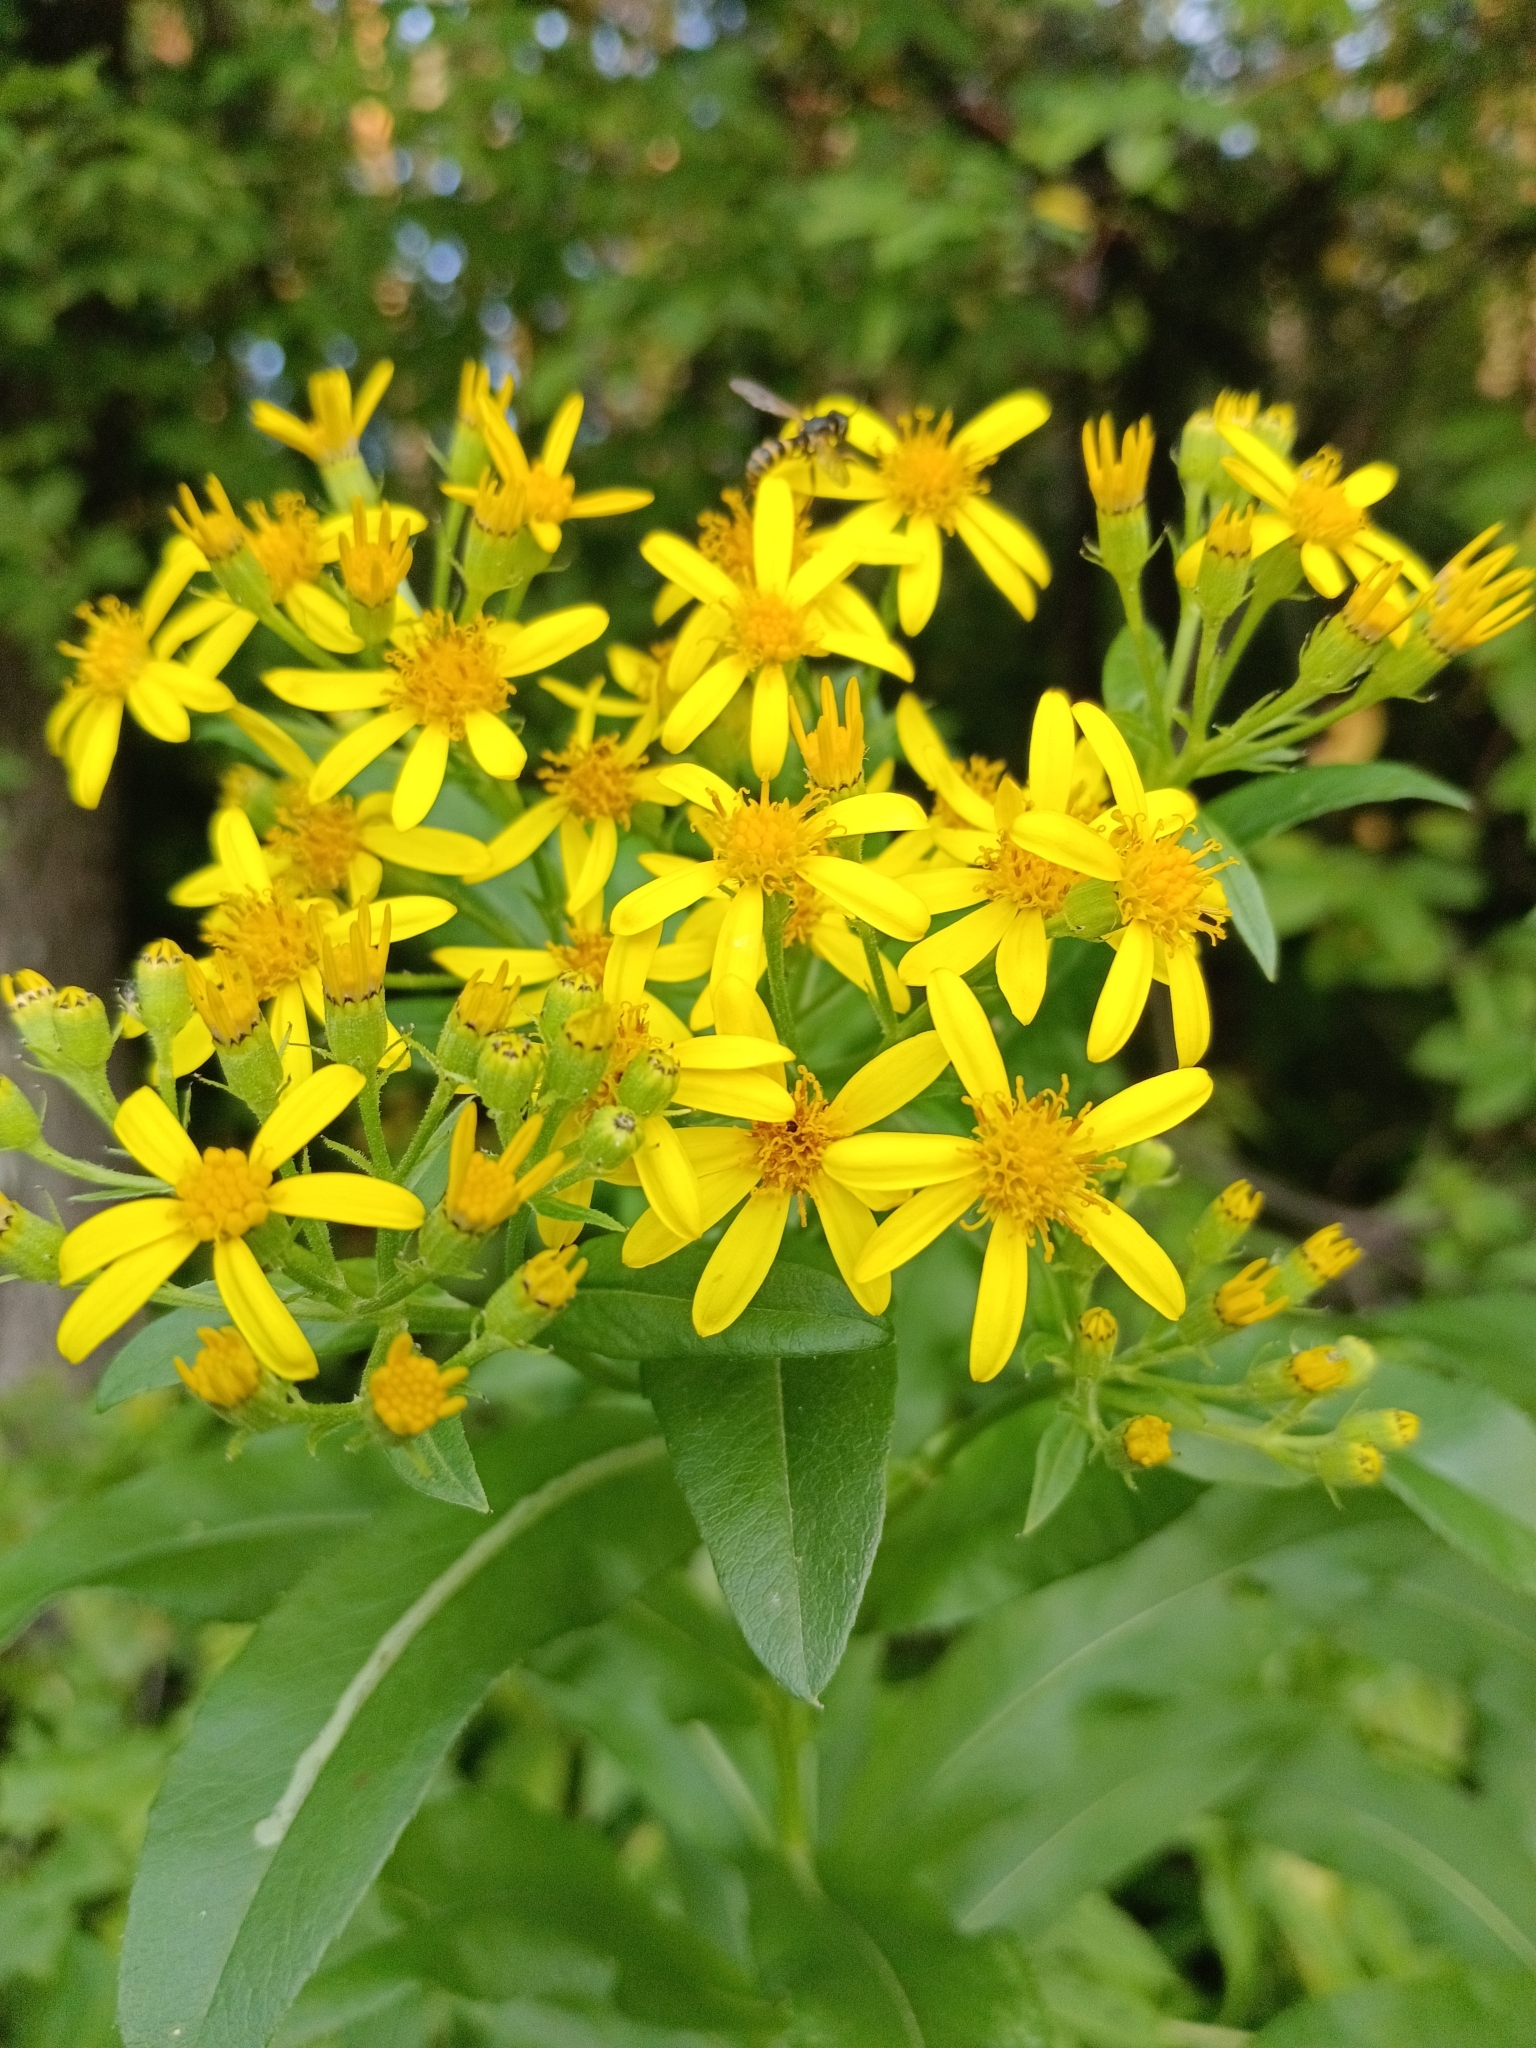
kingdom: Plantae
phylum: Tracheophyta
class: Magnoliopsida
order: Asterales
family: Asteraceae
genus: Solidago
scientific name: Solidago gigantea
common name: Giant goldenrod
